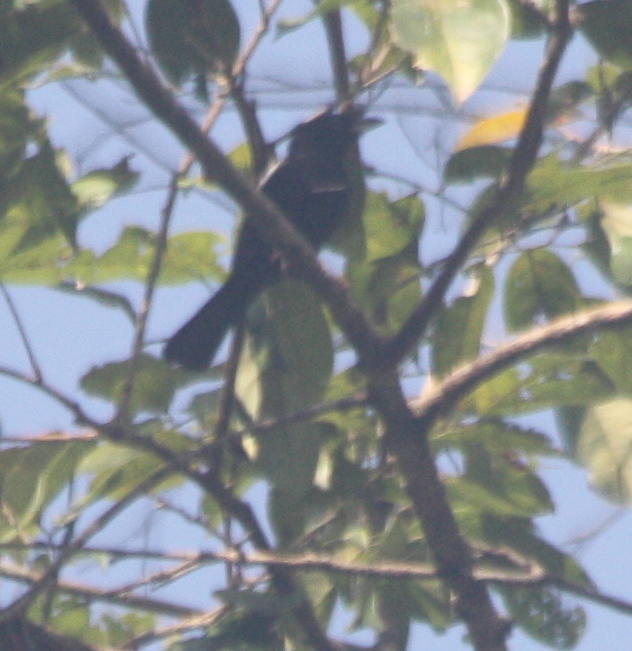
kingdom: Animalia
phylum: Chordata
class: Aves
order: Passeriformes
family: Thraupidae
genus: Tachyphonus
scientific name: Tachyphonus rufus
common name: White-lined tanager
